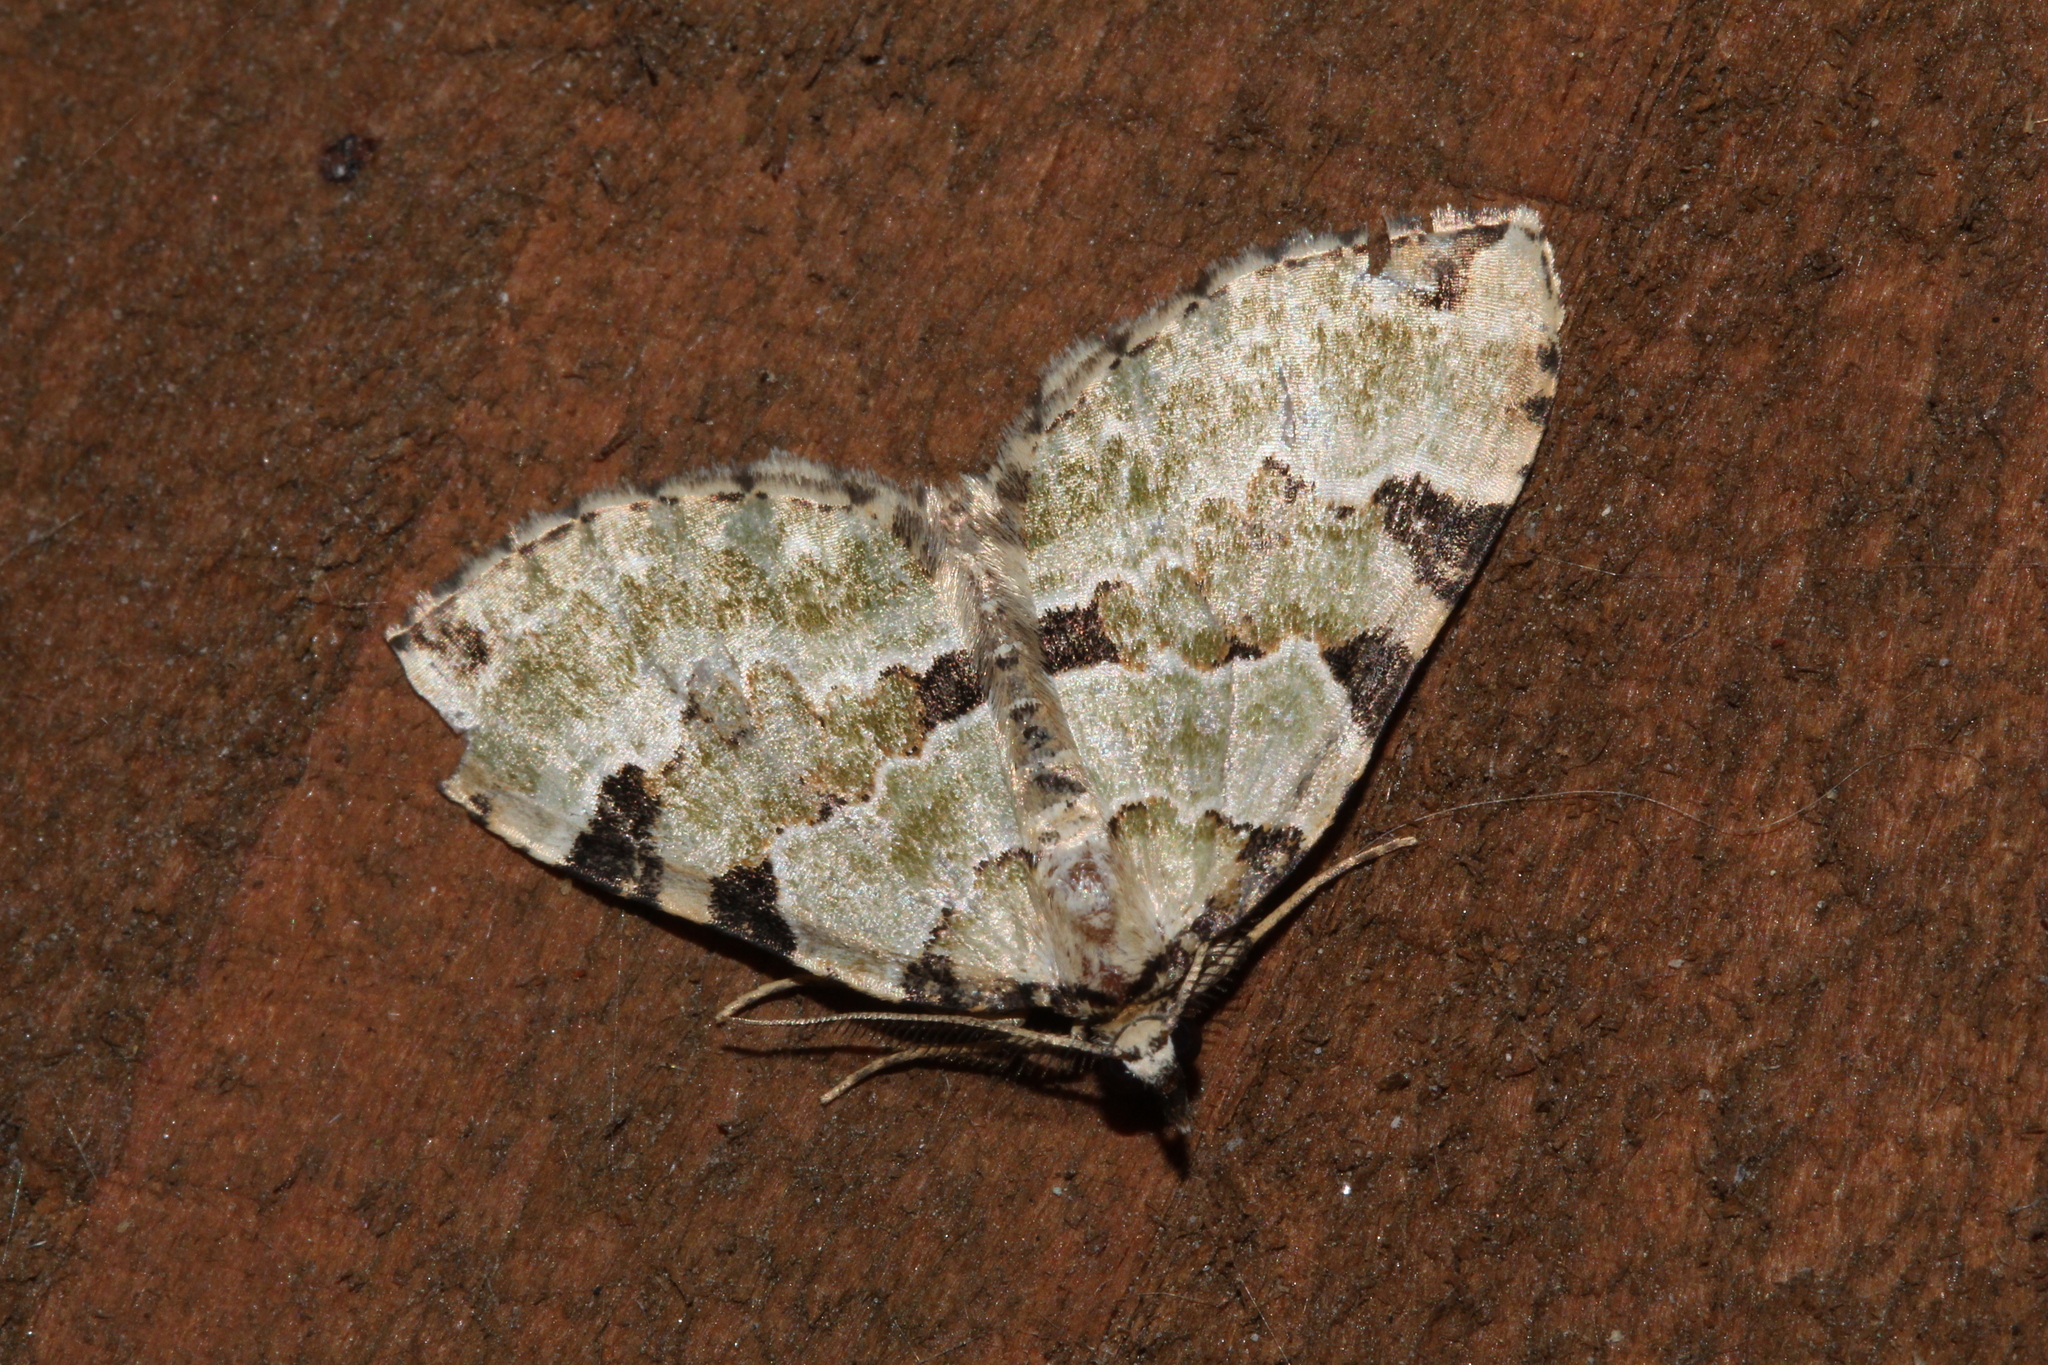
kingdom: Animalia
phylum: Arthropoda
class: Insecta
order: Lepidoptera
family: Geometridae
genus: Colostygia
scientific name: Colostygia pectinataria
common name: Green carpet
